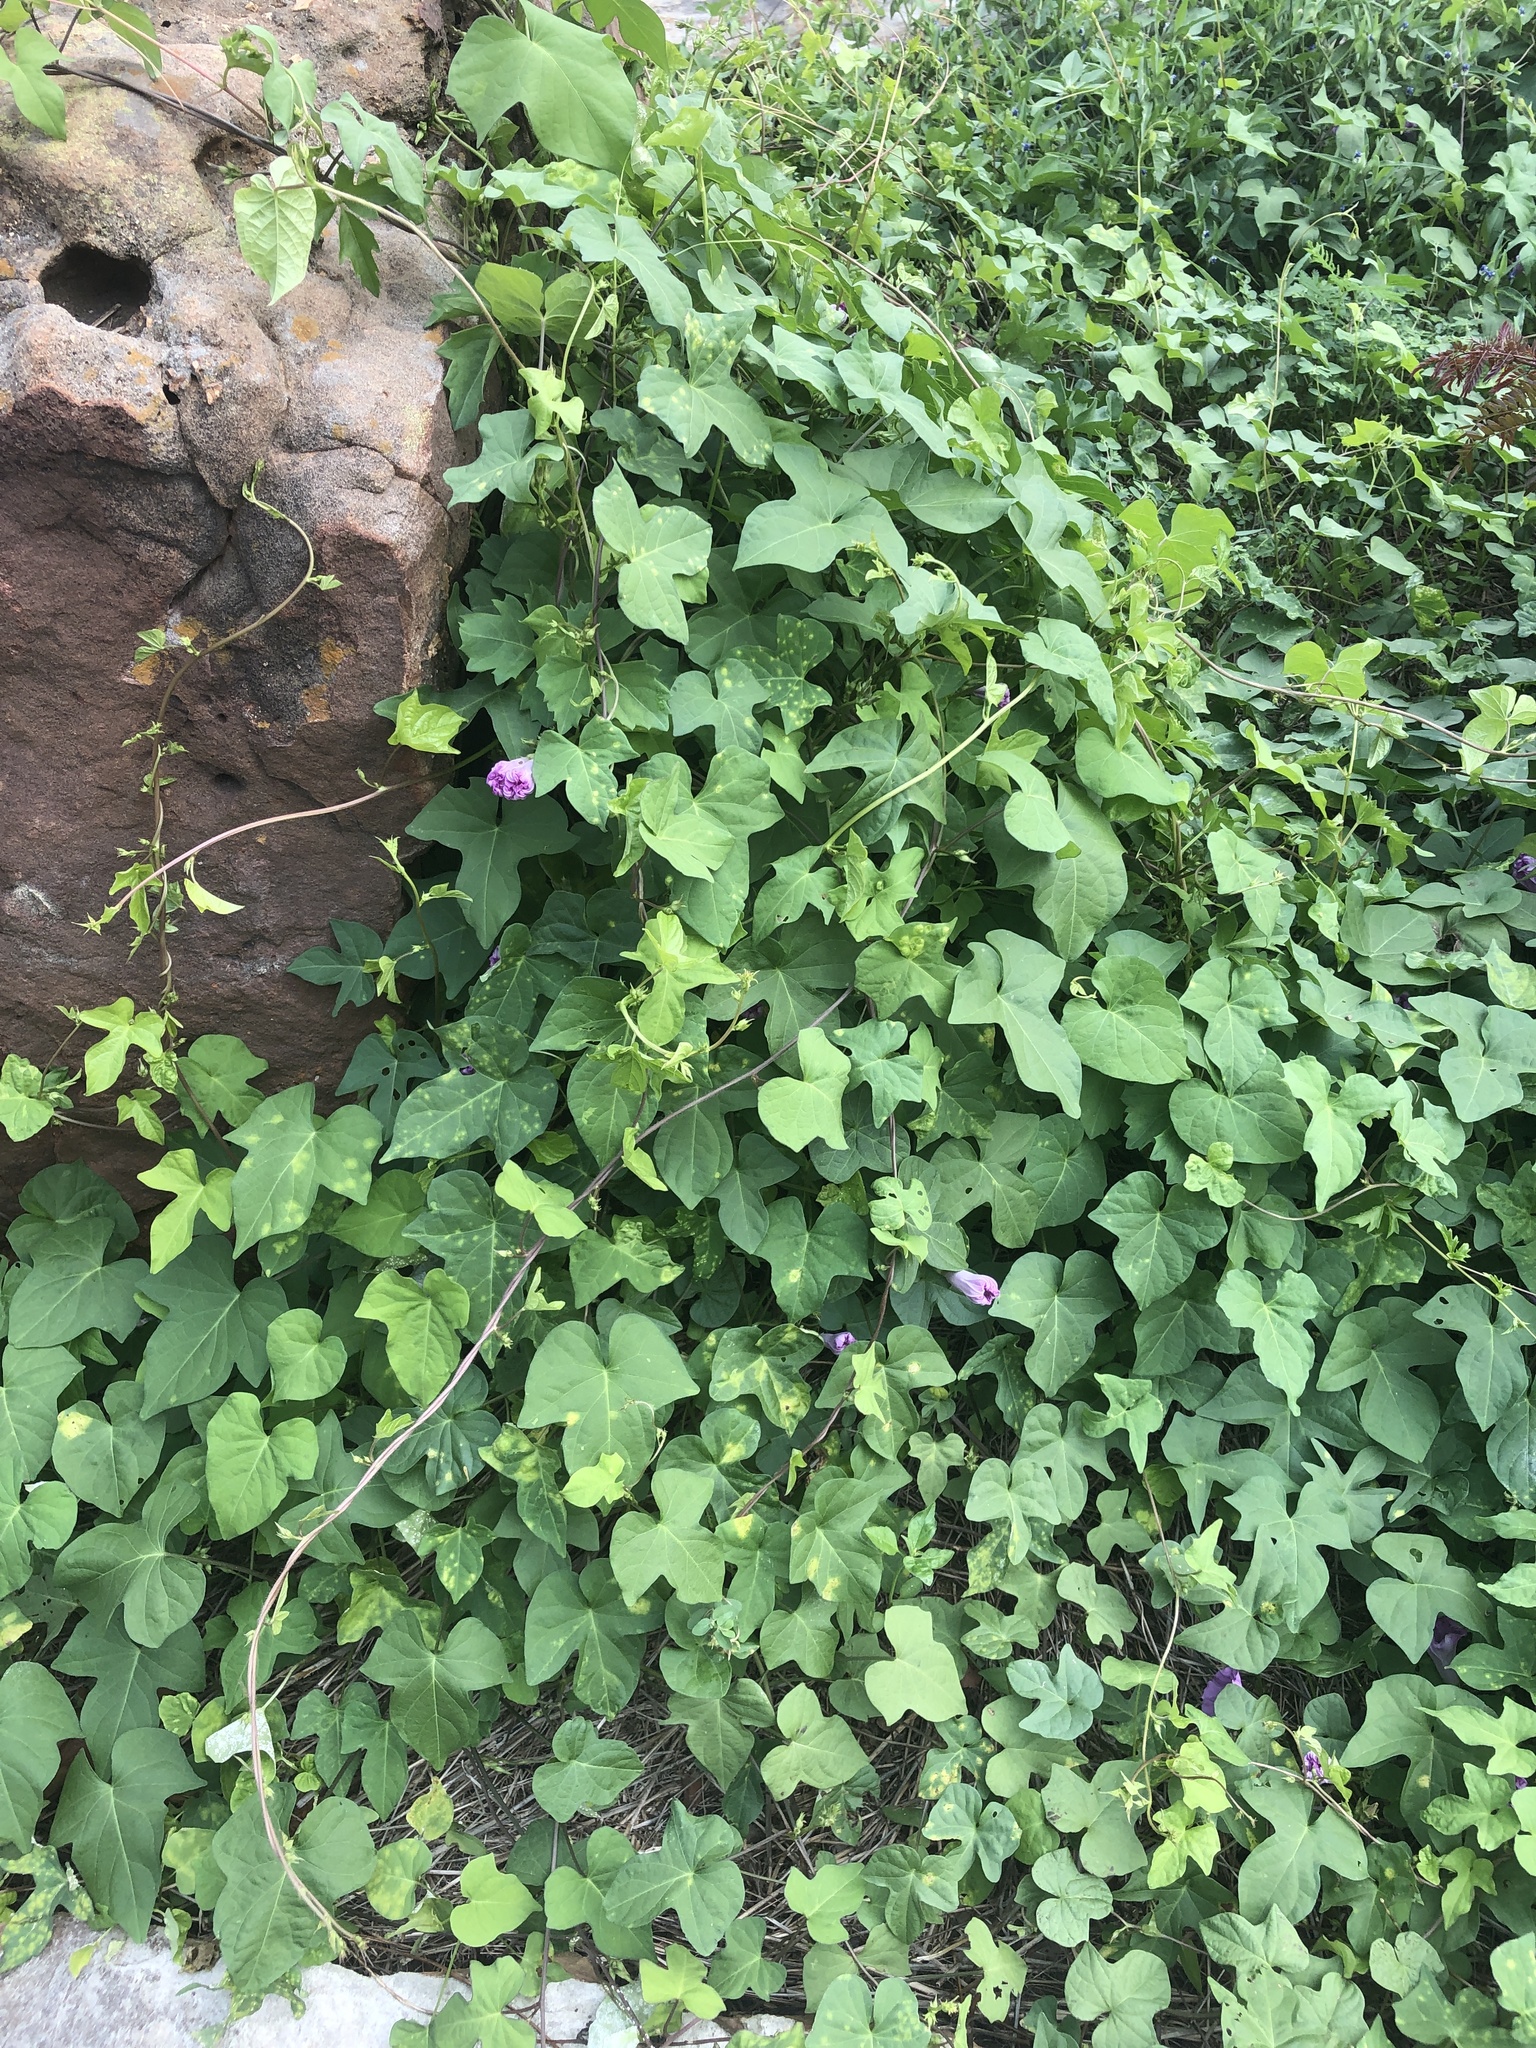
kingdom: Plantae
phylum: Tracheophyta
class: Magnoliopsida
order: Solanales
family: Convolvulaceae
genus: Ipomoea
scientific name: Ipomoea cordatotriloba
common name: Cotton morning glory
